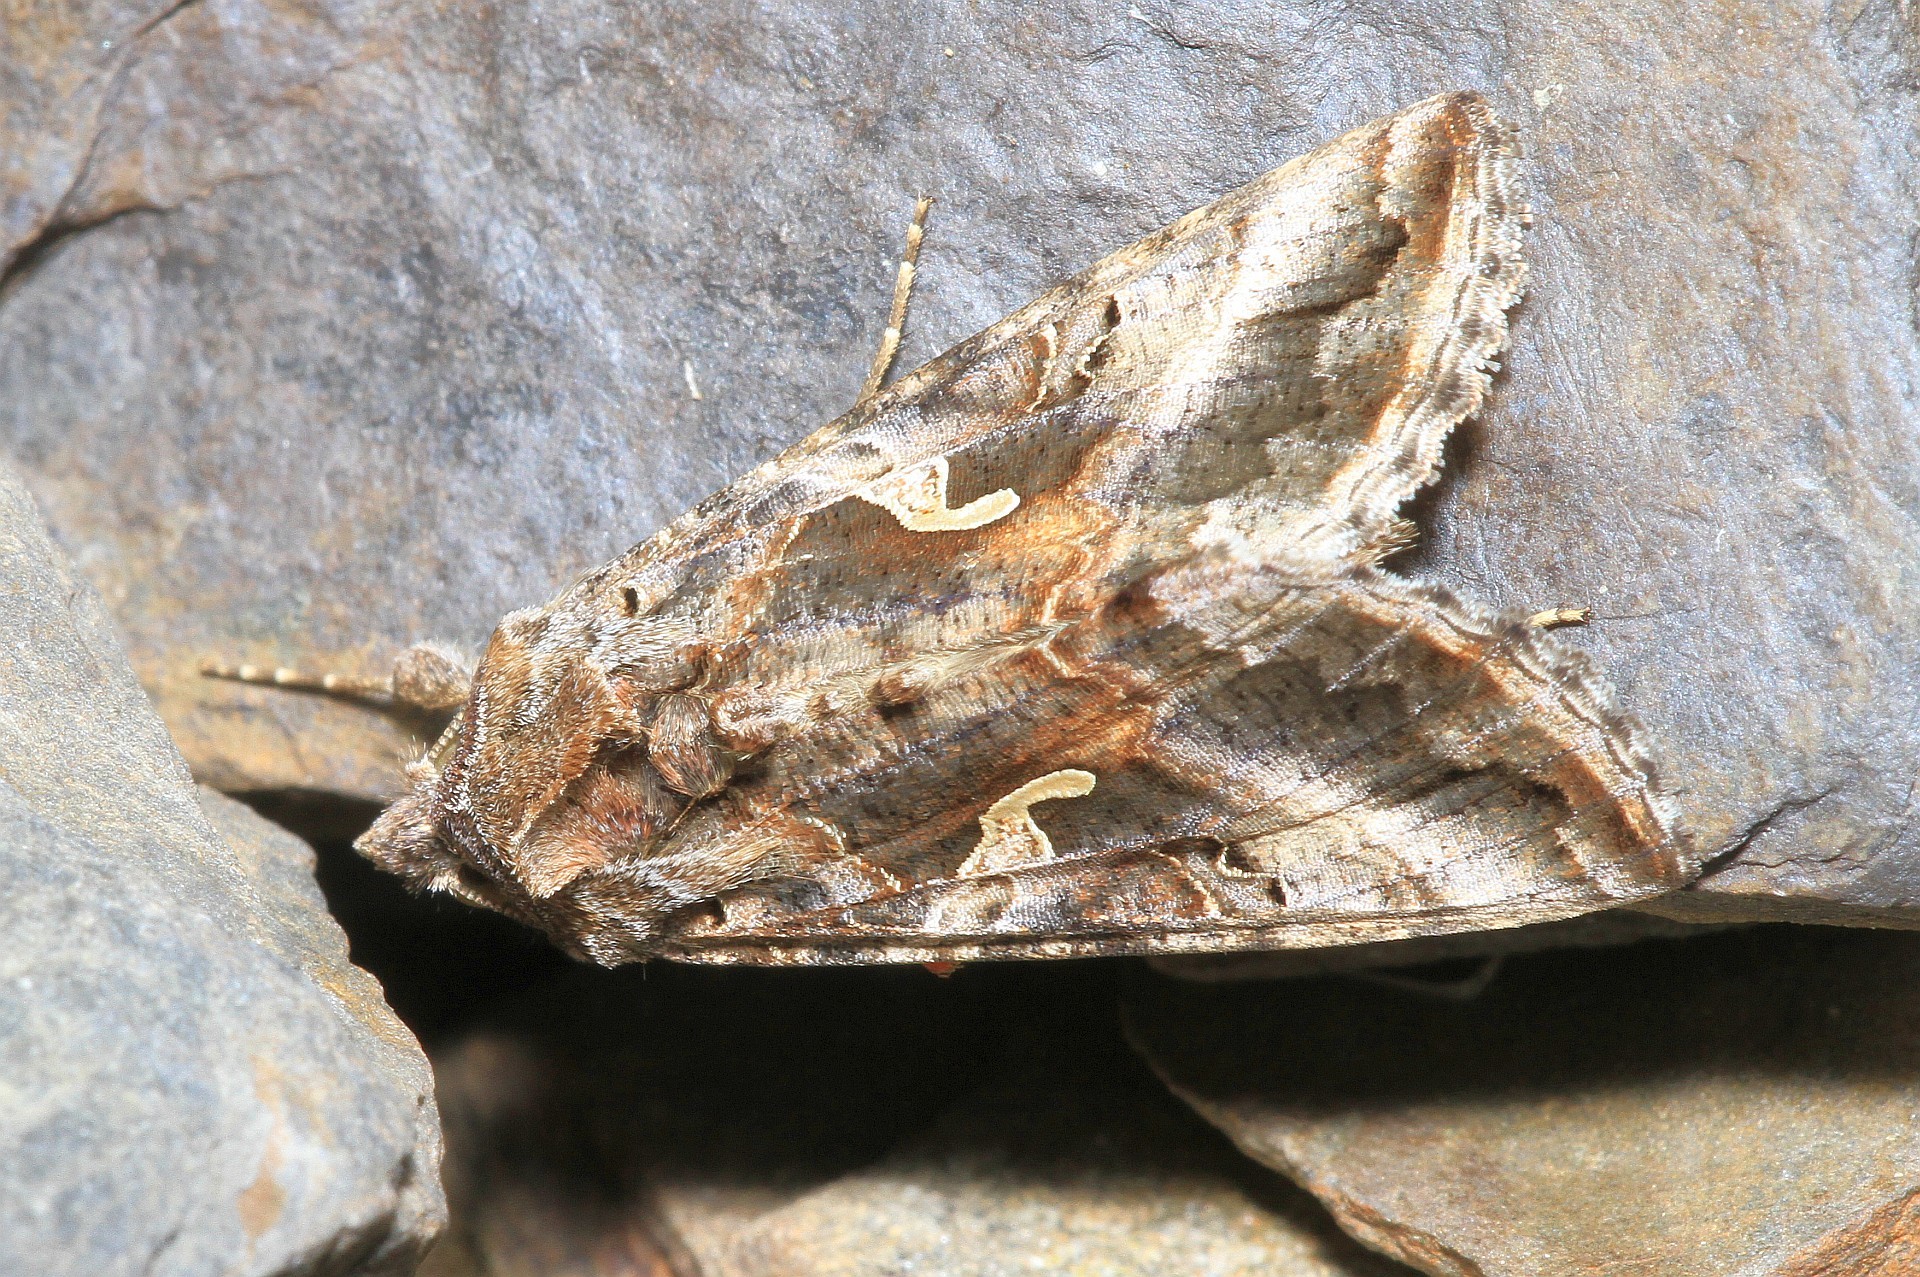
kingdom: Animalia
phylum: Arthropoda
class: Insecta
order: Lepidoptera
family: Noctuidae
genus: Autographa
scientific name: Autographa gamma
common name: Silver y
